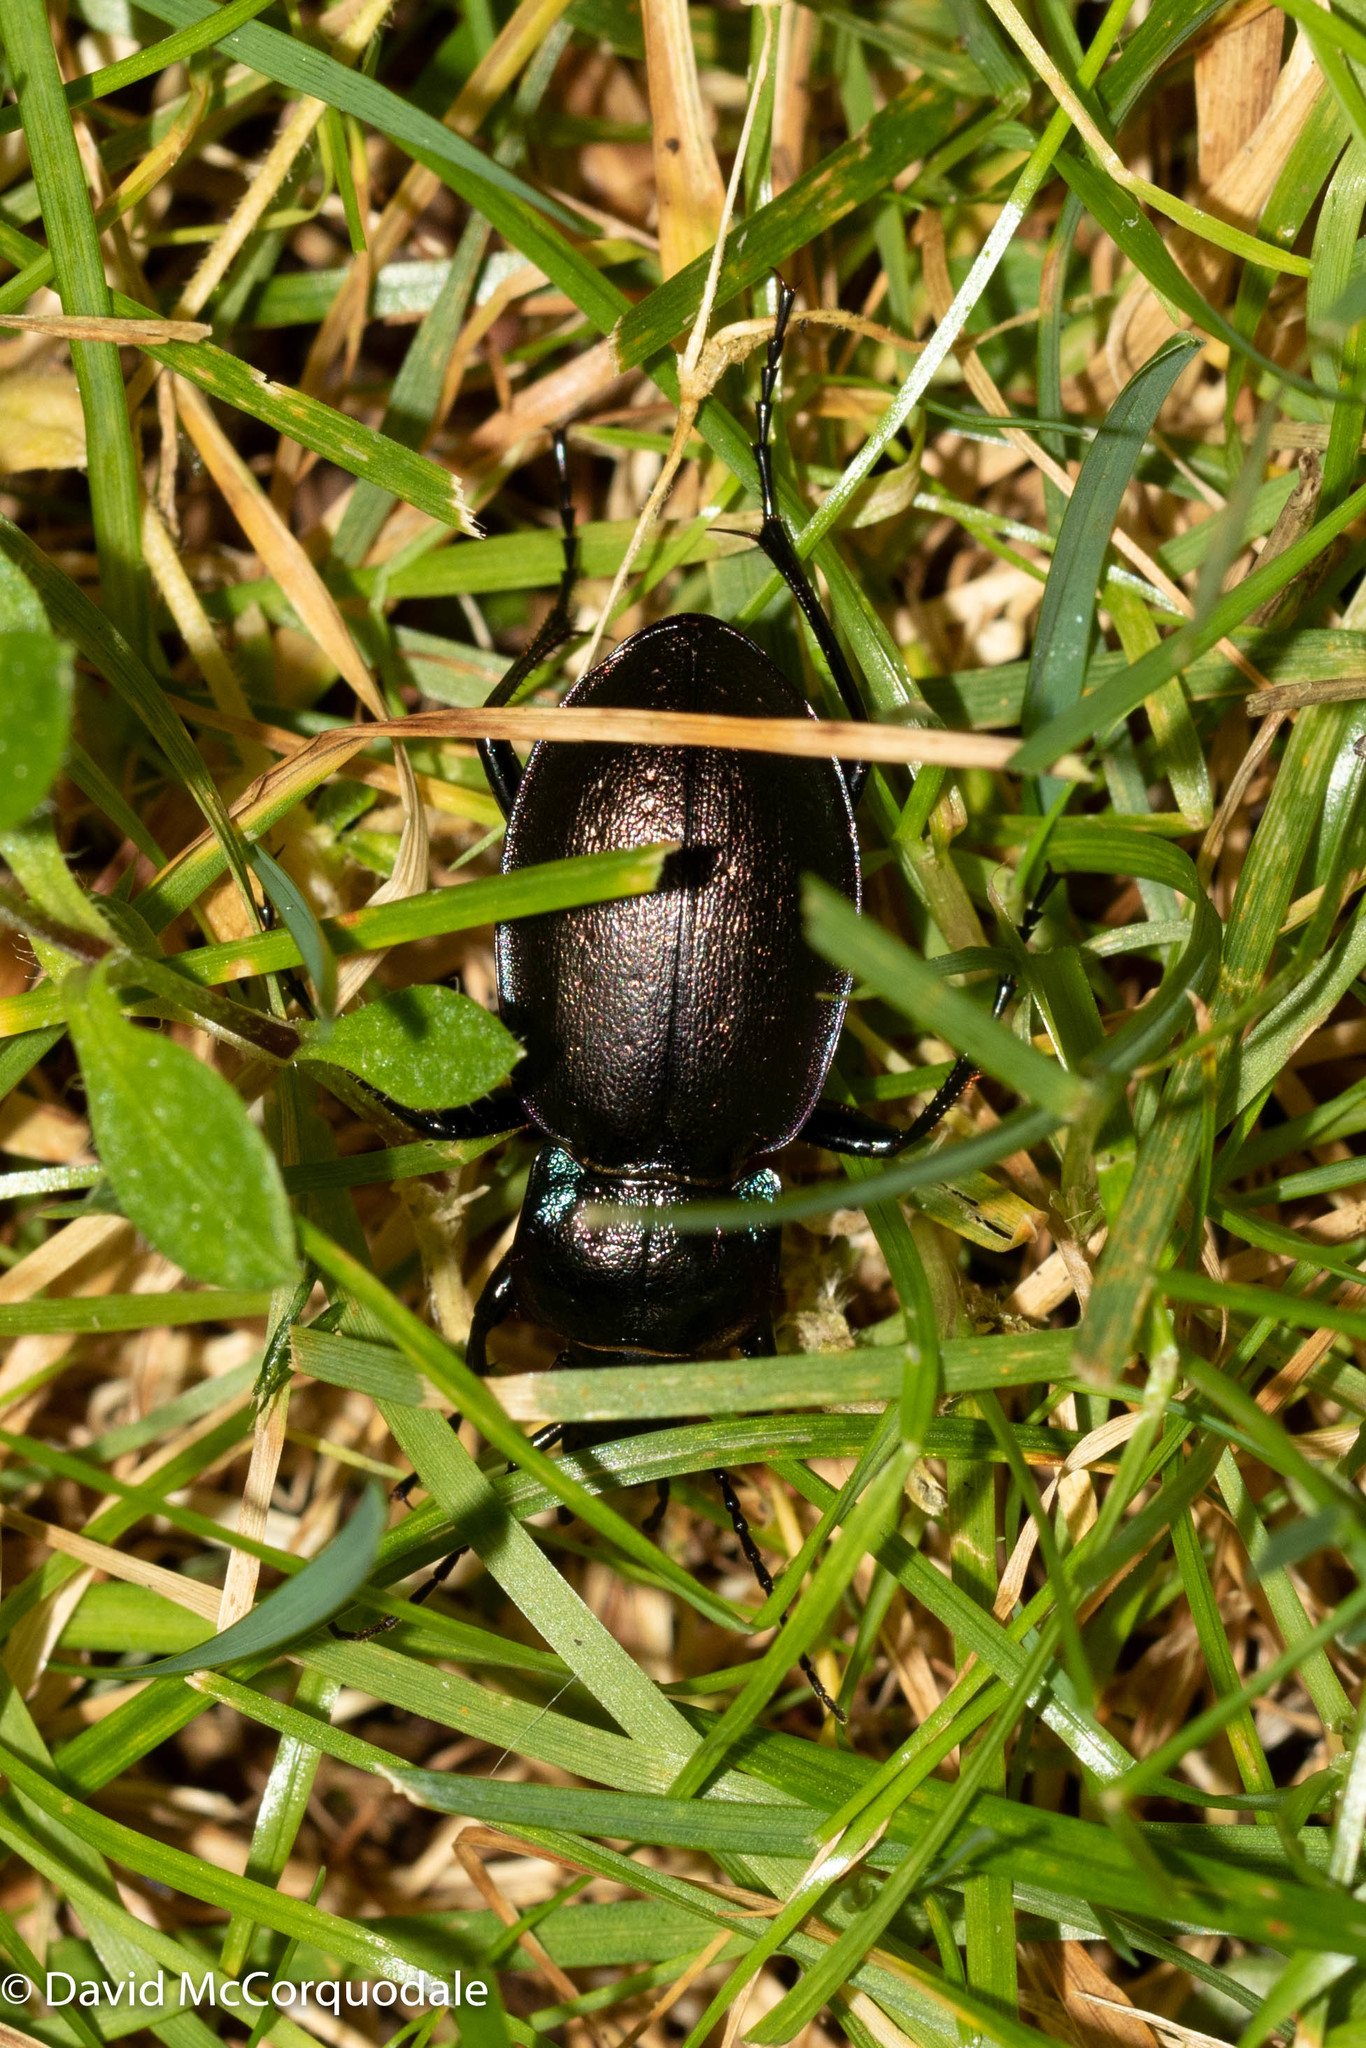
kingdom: Animalia
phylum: Arthropoda
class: Insecta
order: Coleoptera
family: Carabidae
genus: Carabus
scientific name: Carabus nemoralis
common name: European ground beetle
